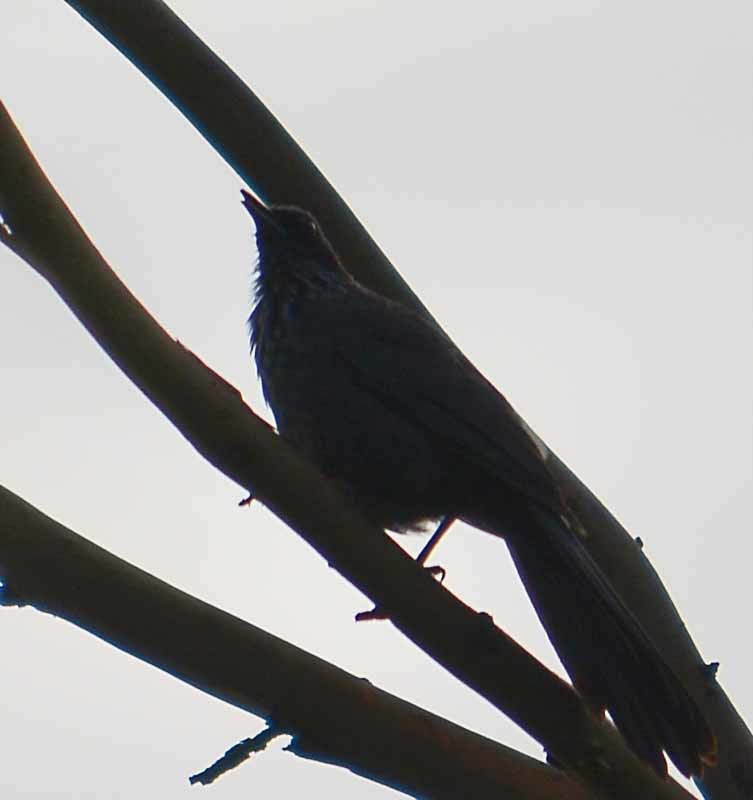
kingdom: Animalia
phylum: Chordata
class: Aves
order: Passeriformes
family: Mimidae
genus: Melanotis
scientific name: Melanotis caerulescens
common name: Blue mockingbird
